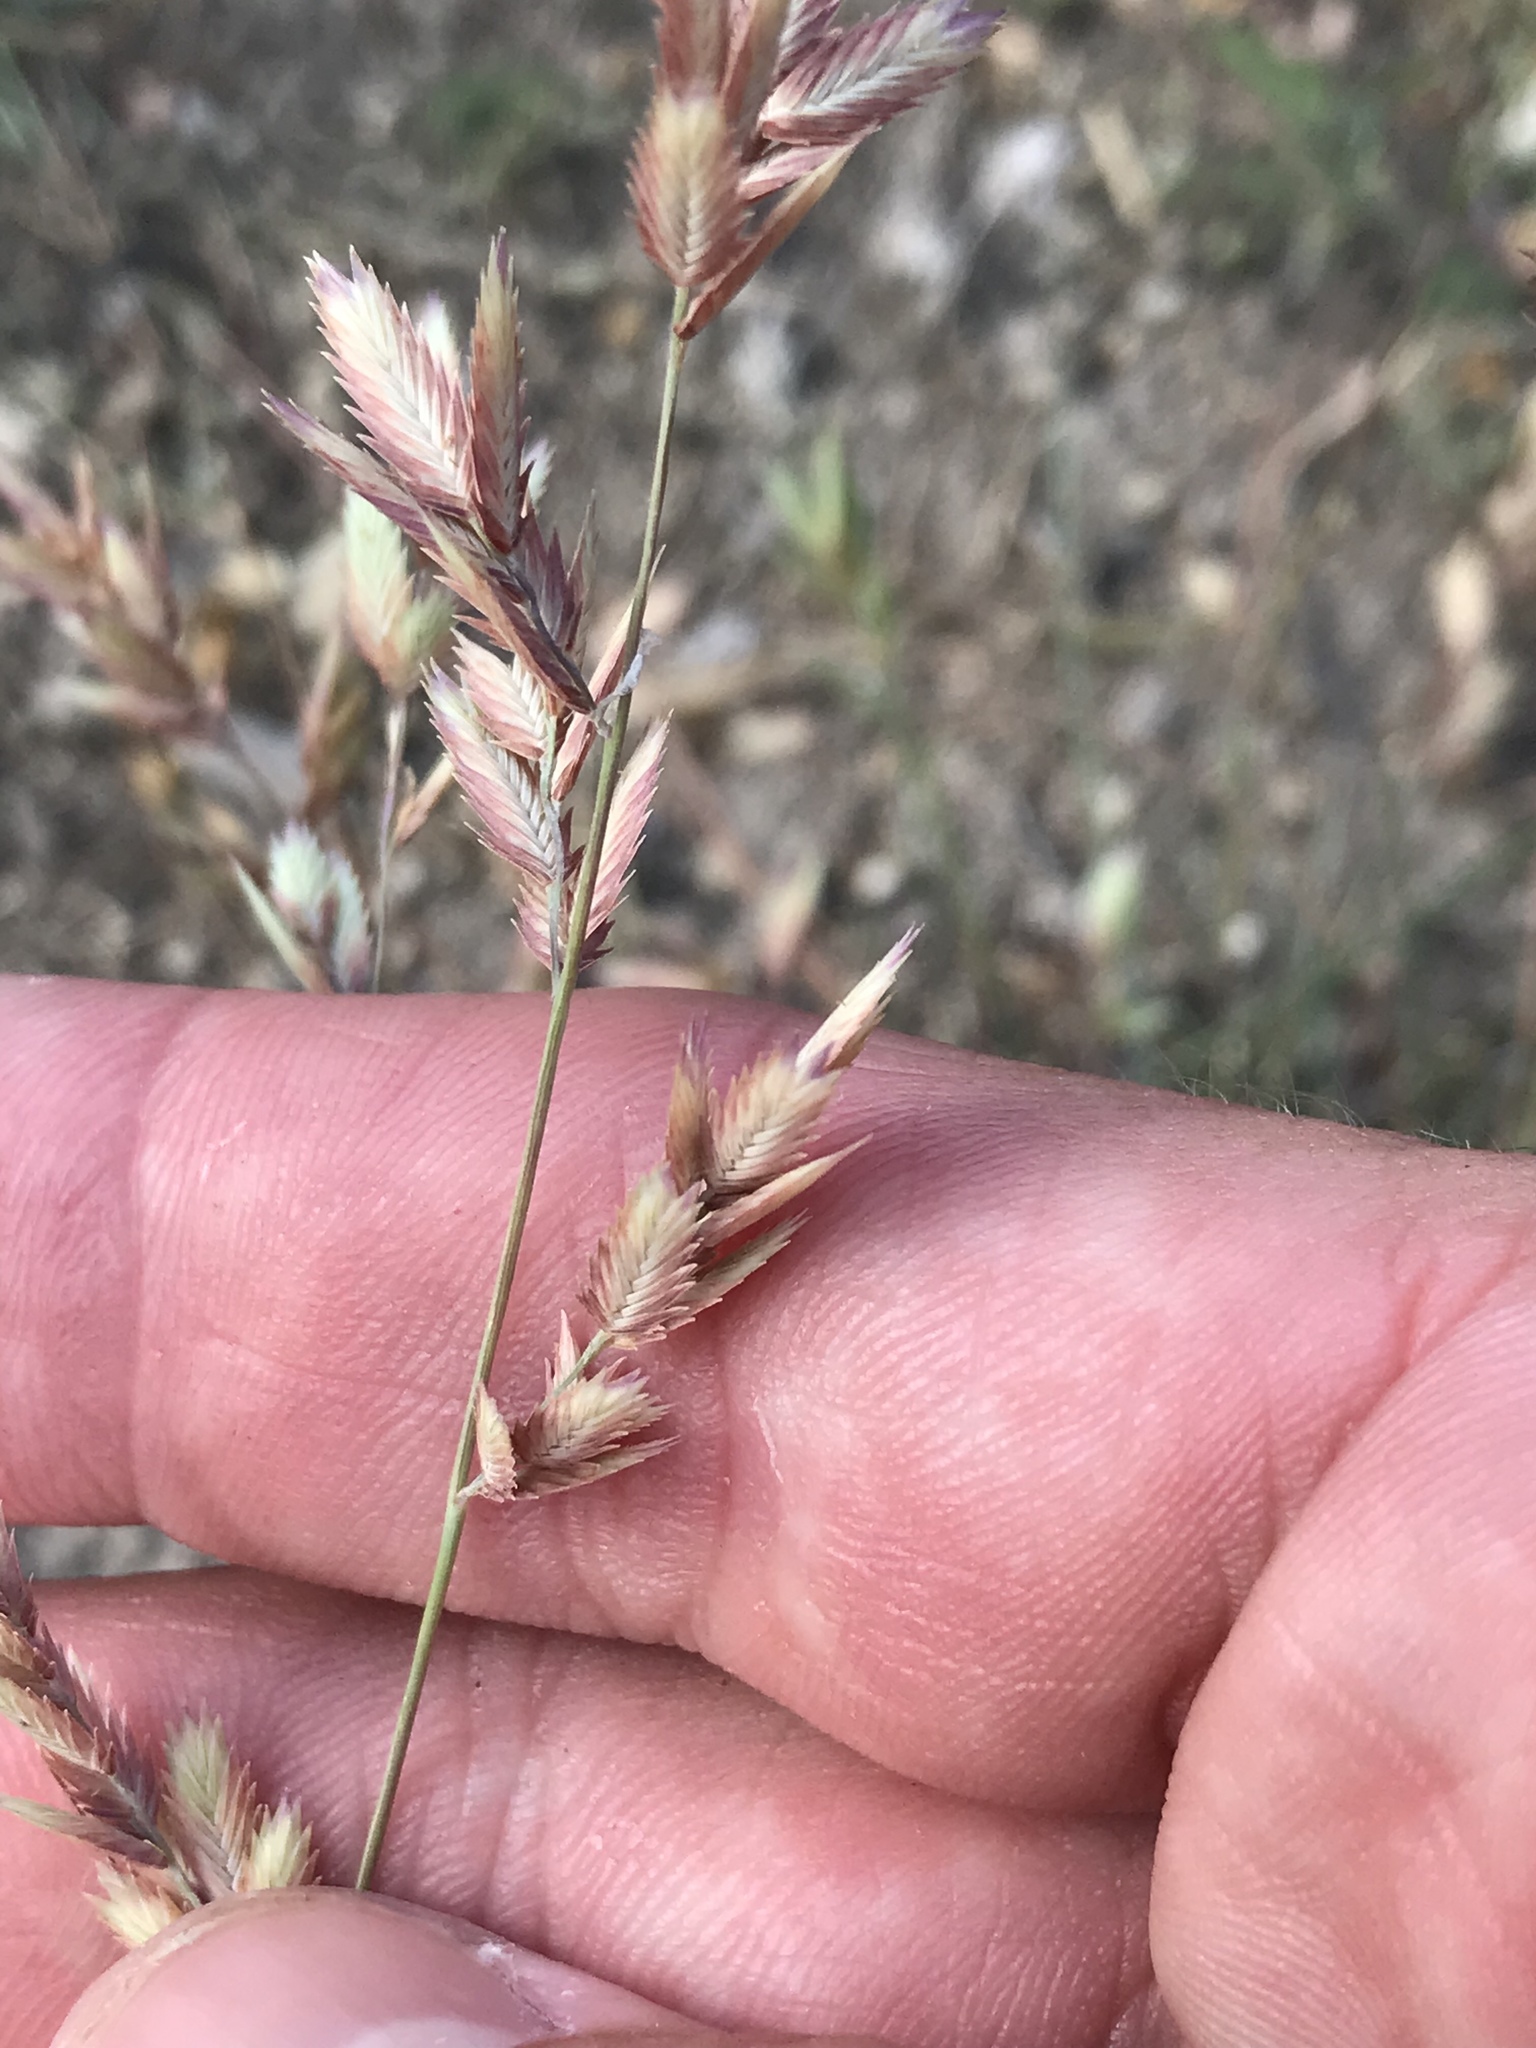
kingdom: Plantae
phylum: Tracheophyta
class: Liliopsida
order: Poales
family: Poaceae
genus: Eragrostis
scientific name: Eragrostis secundiflora
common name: Red love grass
